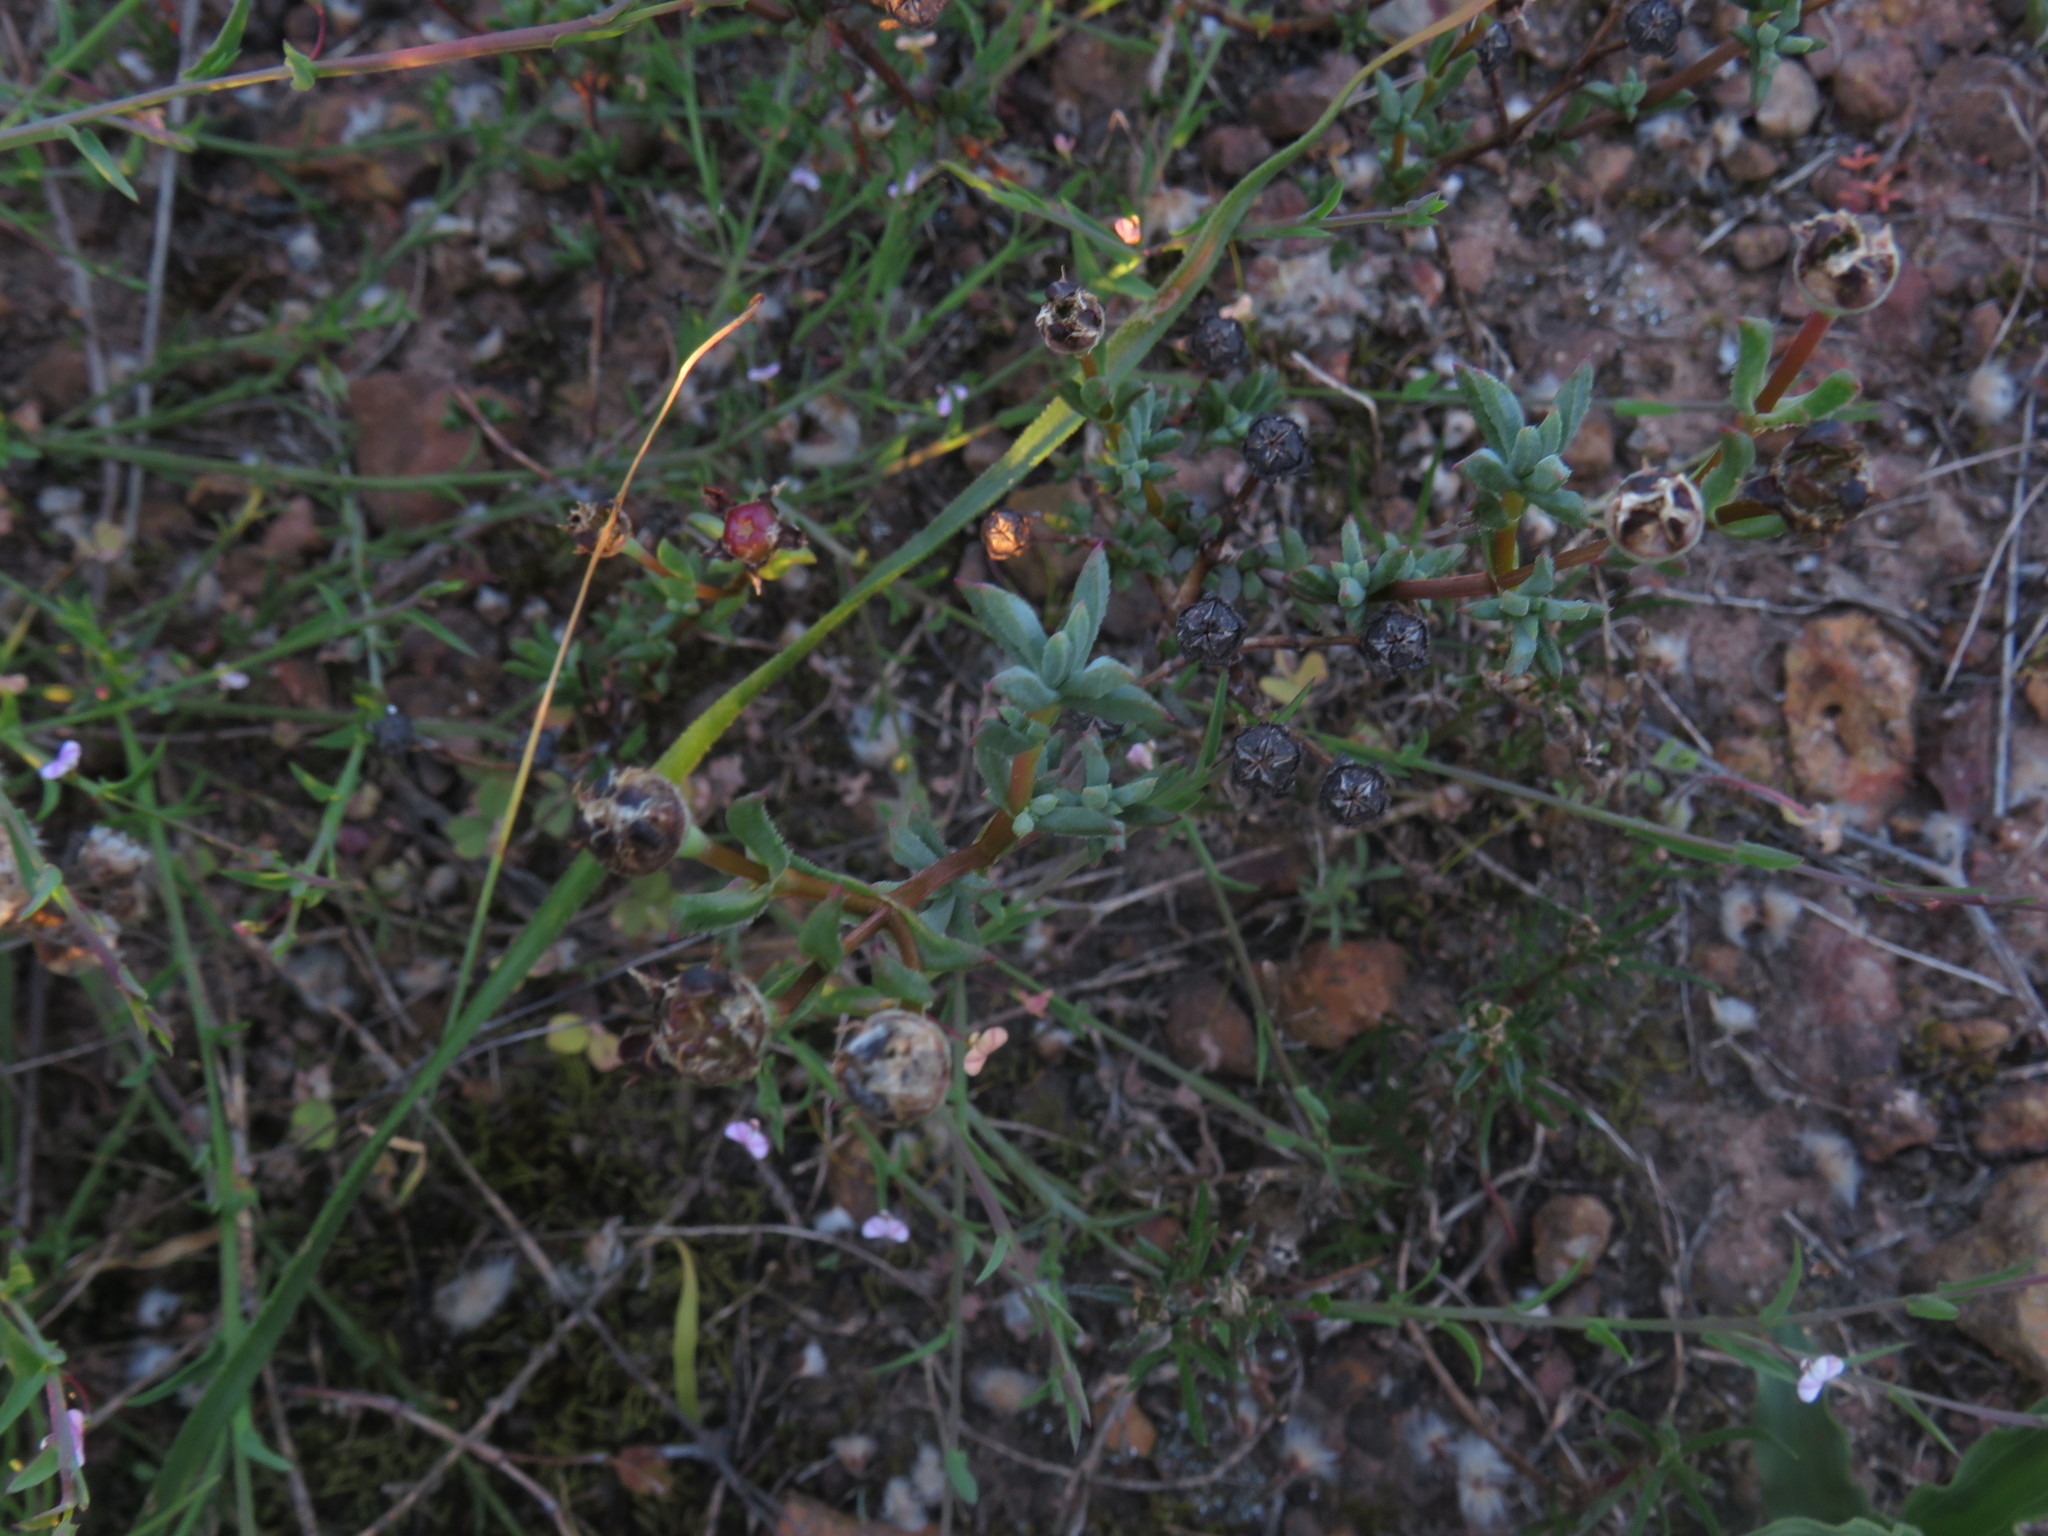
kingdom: Plantae
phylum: Tracheophyta
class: Magnoliopsida
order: Caryophyllales
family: Aizoaceae
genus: Lampranthus
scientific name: Lampranthus leptaleon
